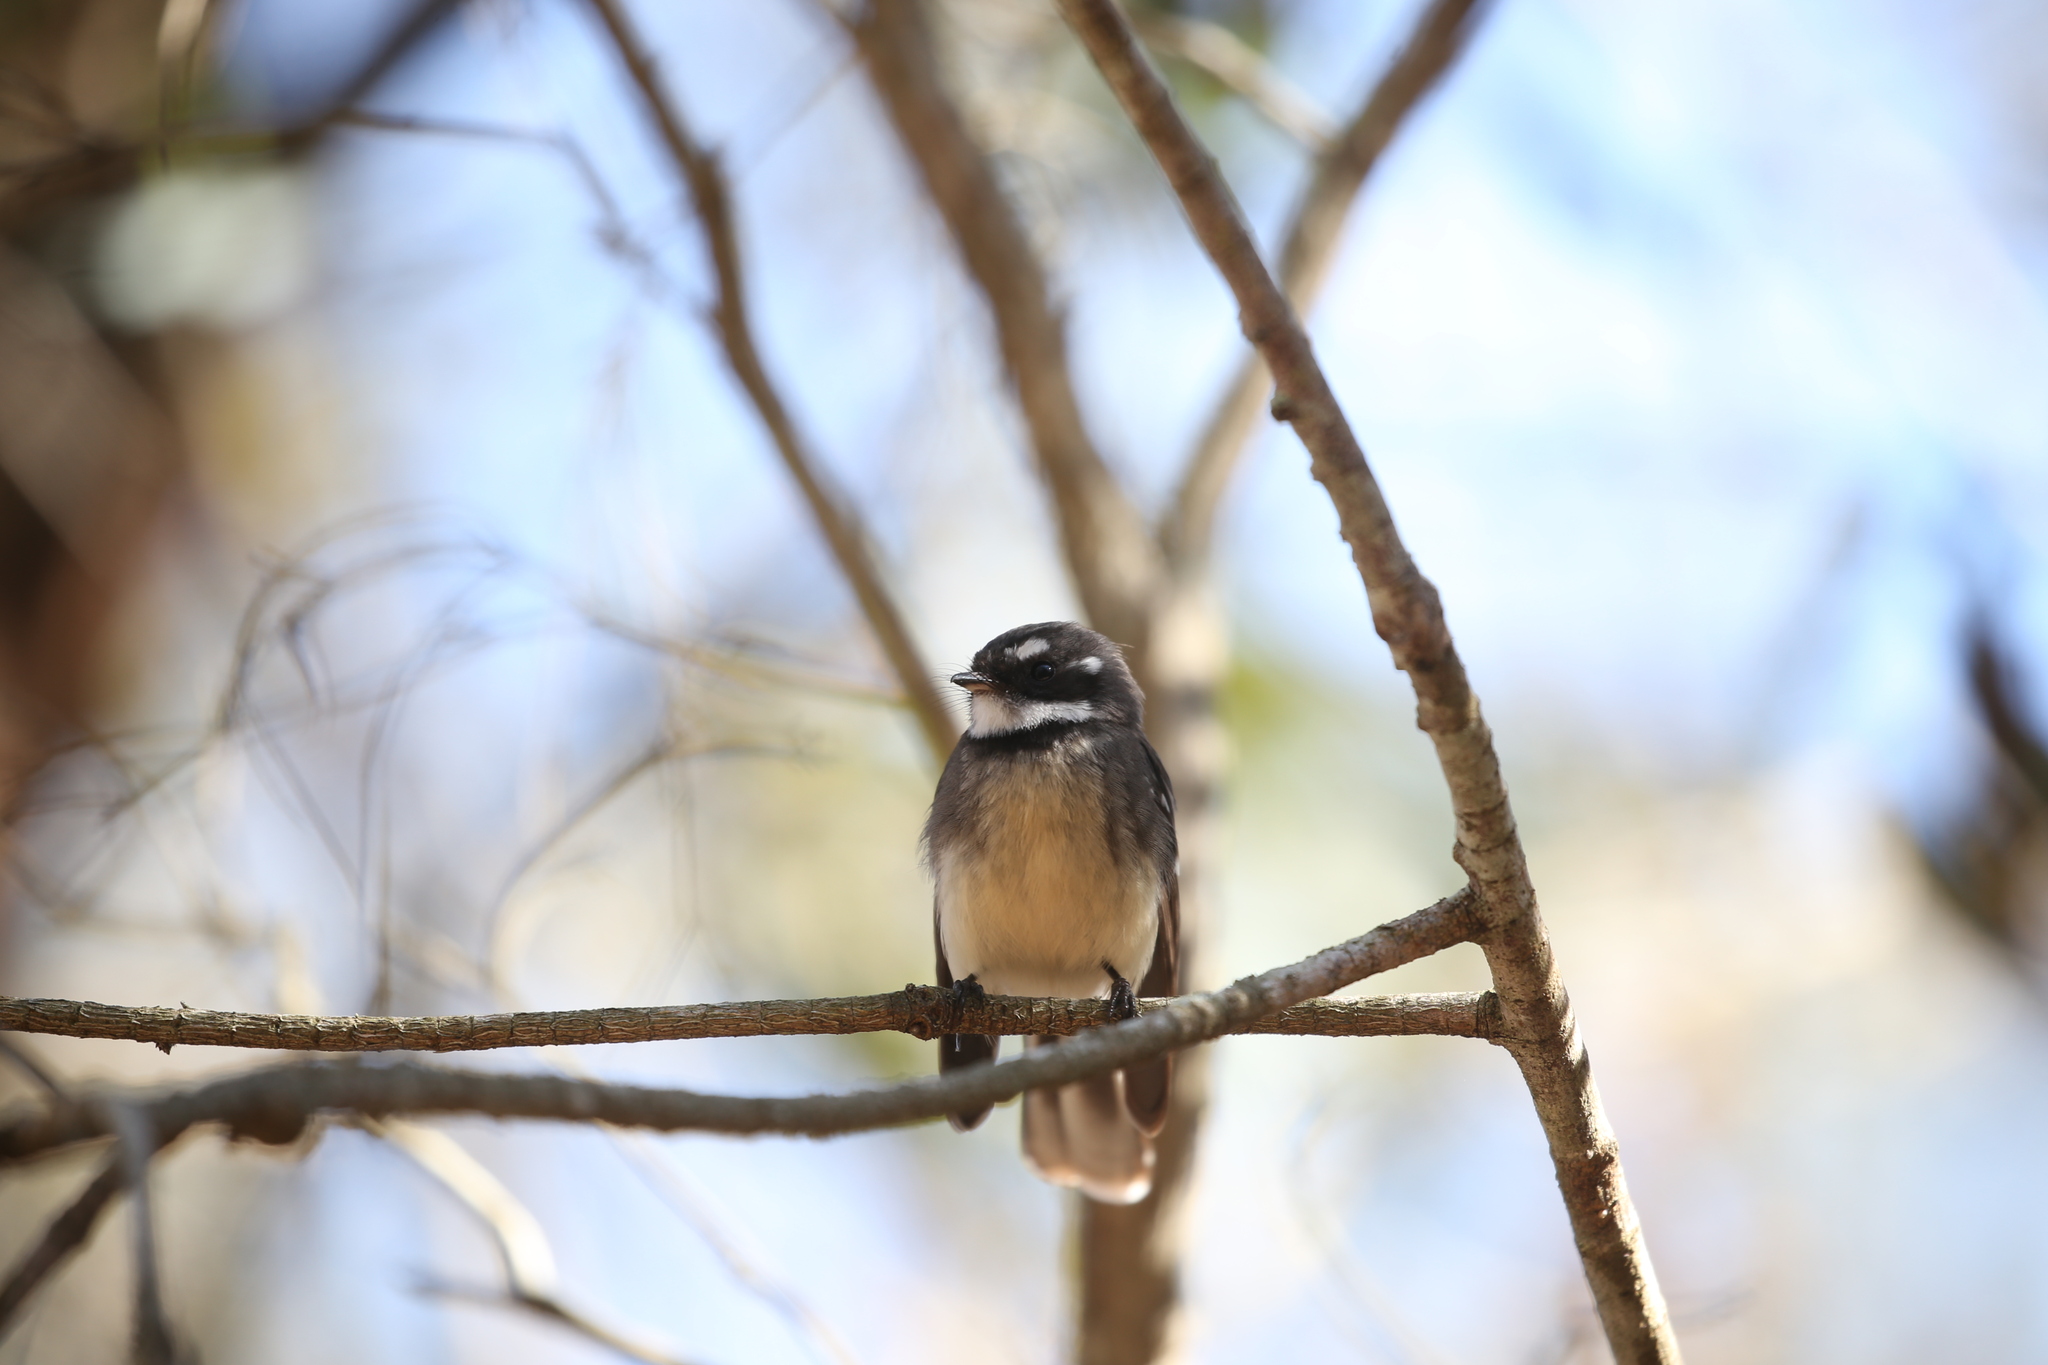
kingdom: Animalia
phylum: Chordata
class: Aves
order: Passeriformes
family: Rhipiduridae
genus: Rhipidura
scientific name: Rhipidura albiscapa
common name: Grey fantail
